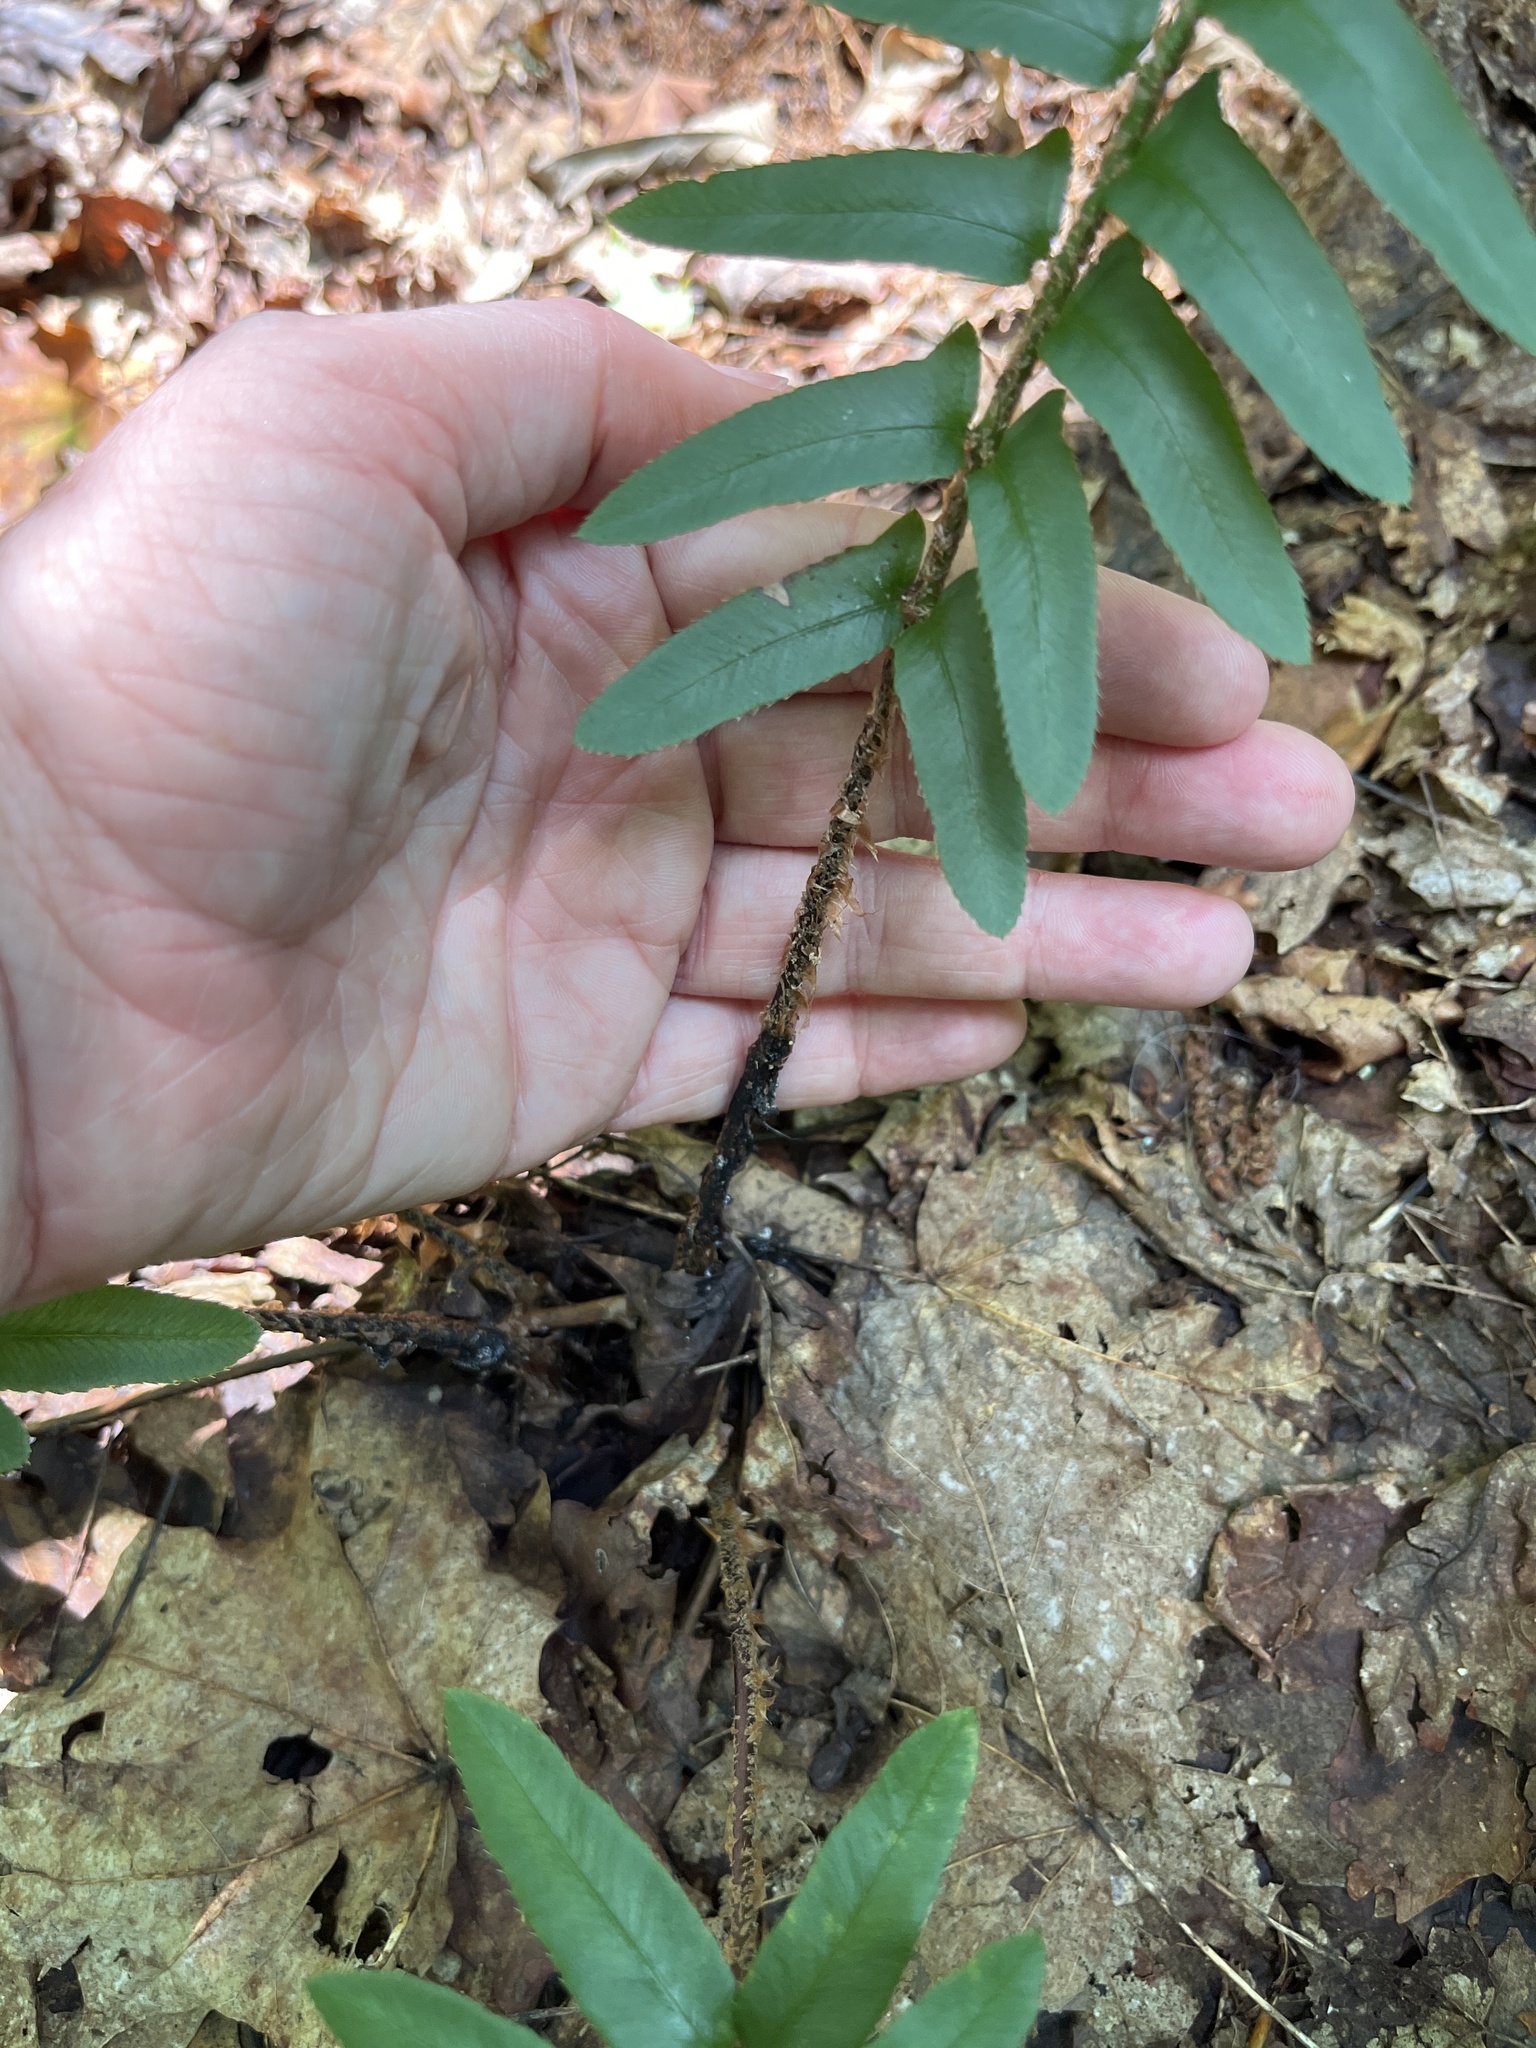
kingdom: Plantae
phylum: Tracheophyta
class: Polypodiopsida
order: Polypodiales
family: Dryopteridaceae
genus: Polystichum
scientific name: Polystichum acrostichoides
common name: Christmas fern
